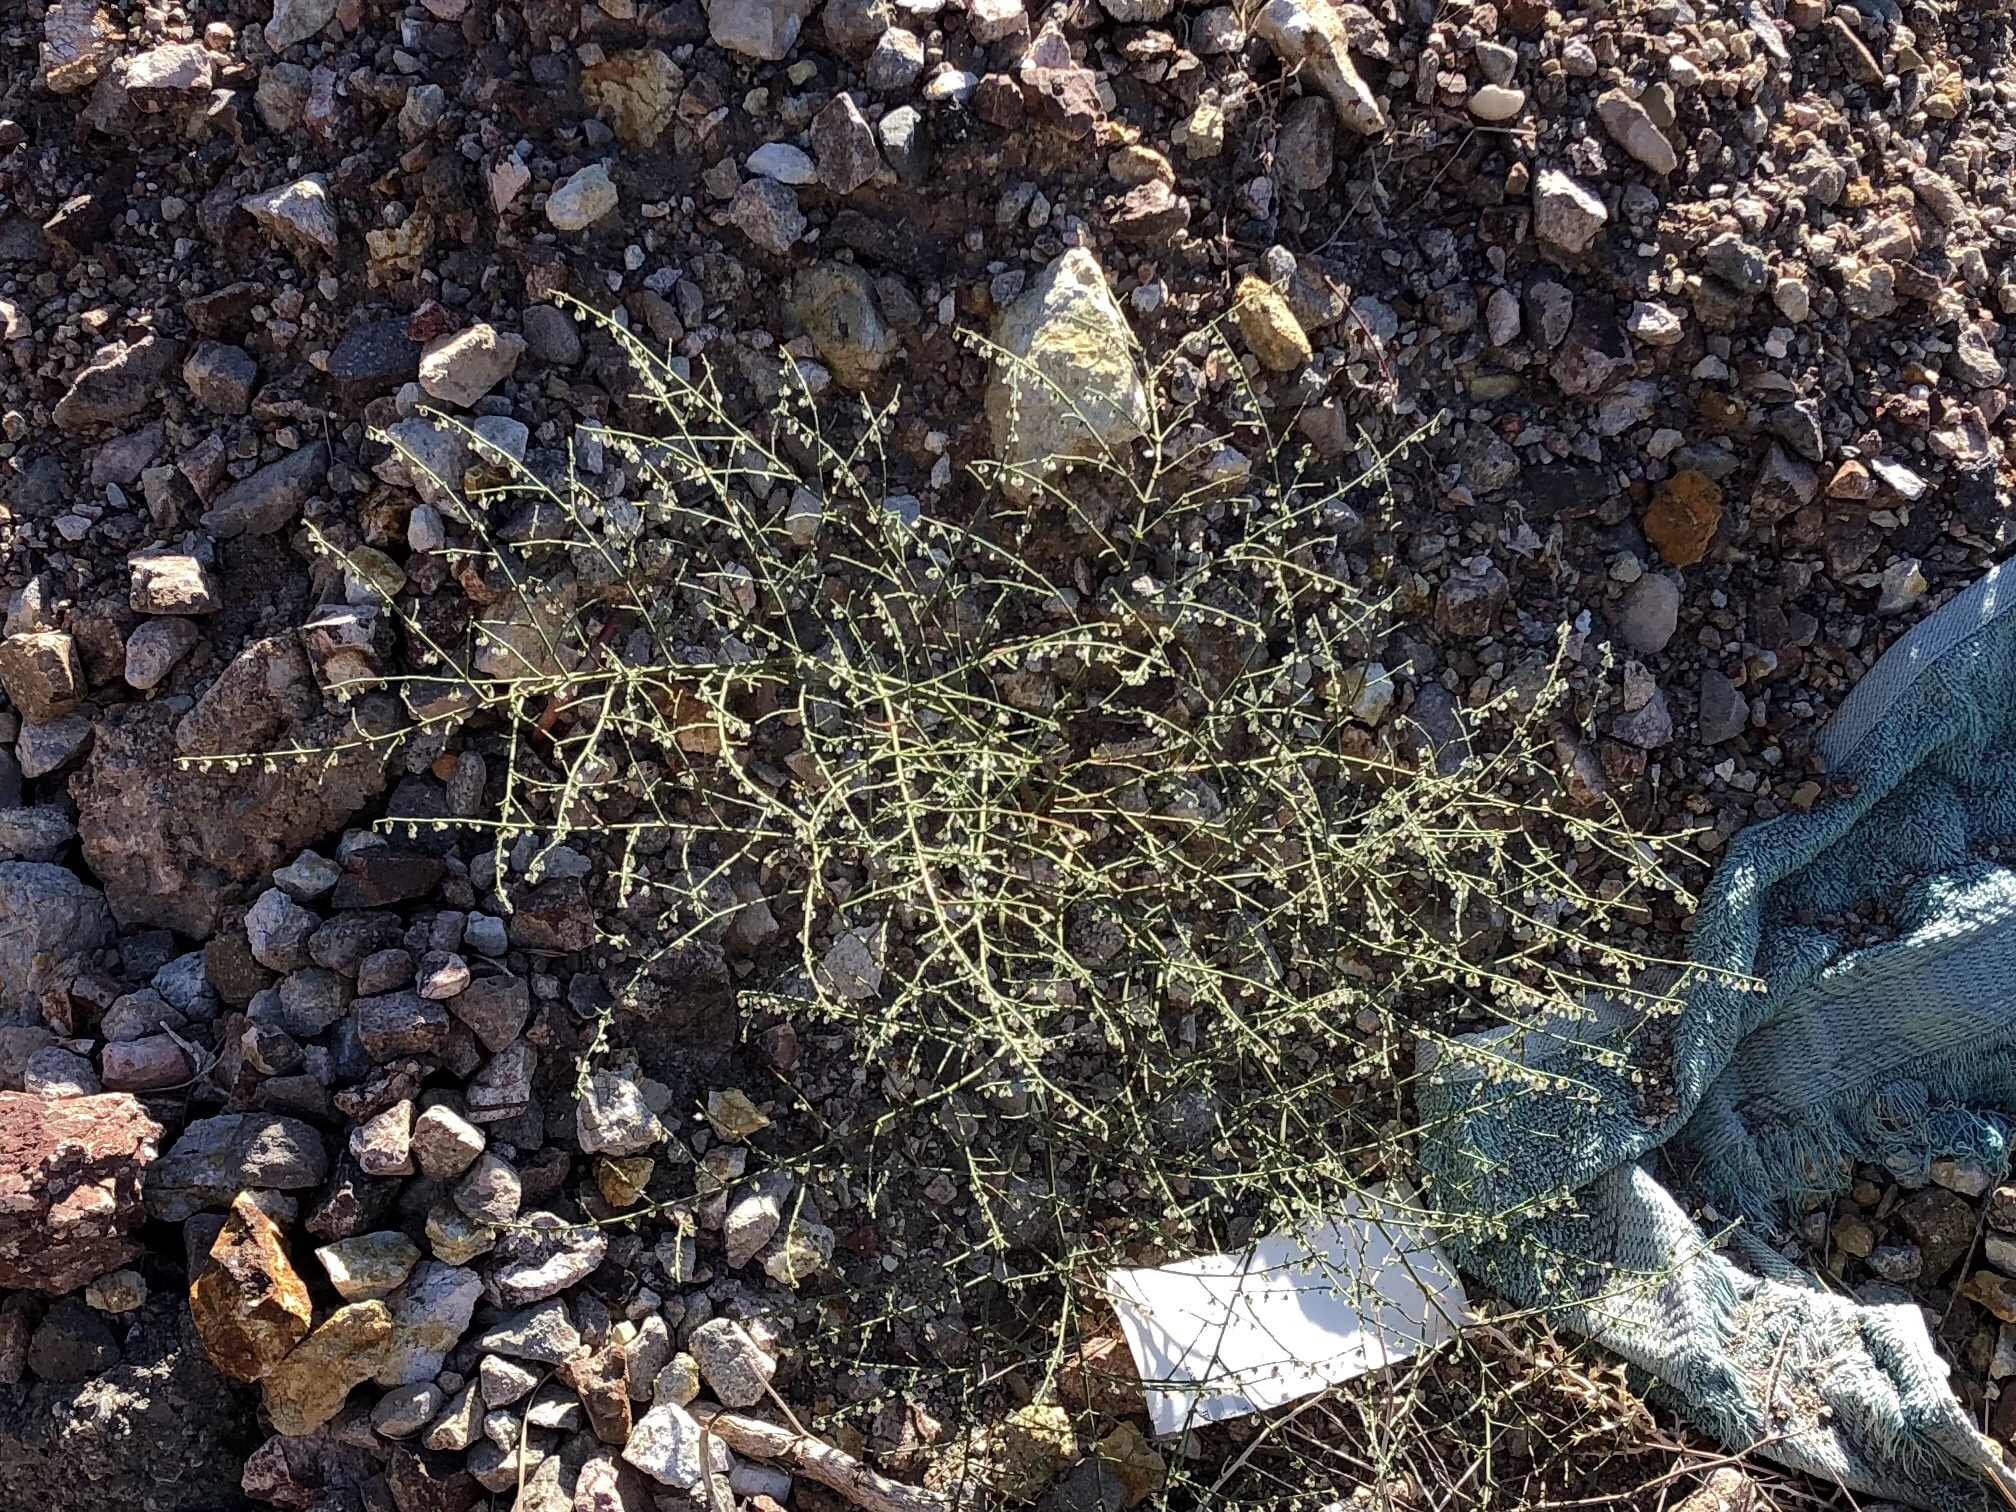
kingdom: Plantae
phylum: Tracheophyta
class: Magnoliopsida
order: Caryophyllales
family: Polygonaceae
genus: Eriogonum
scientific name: Eriogonum deflexum
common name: Skeleton-weed
